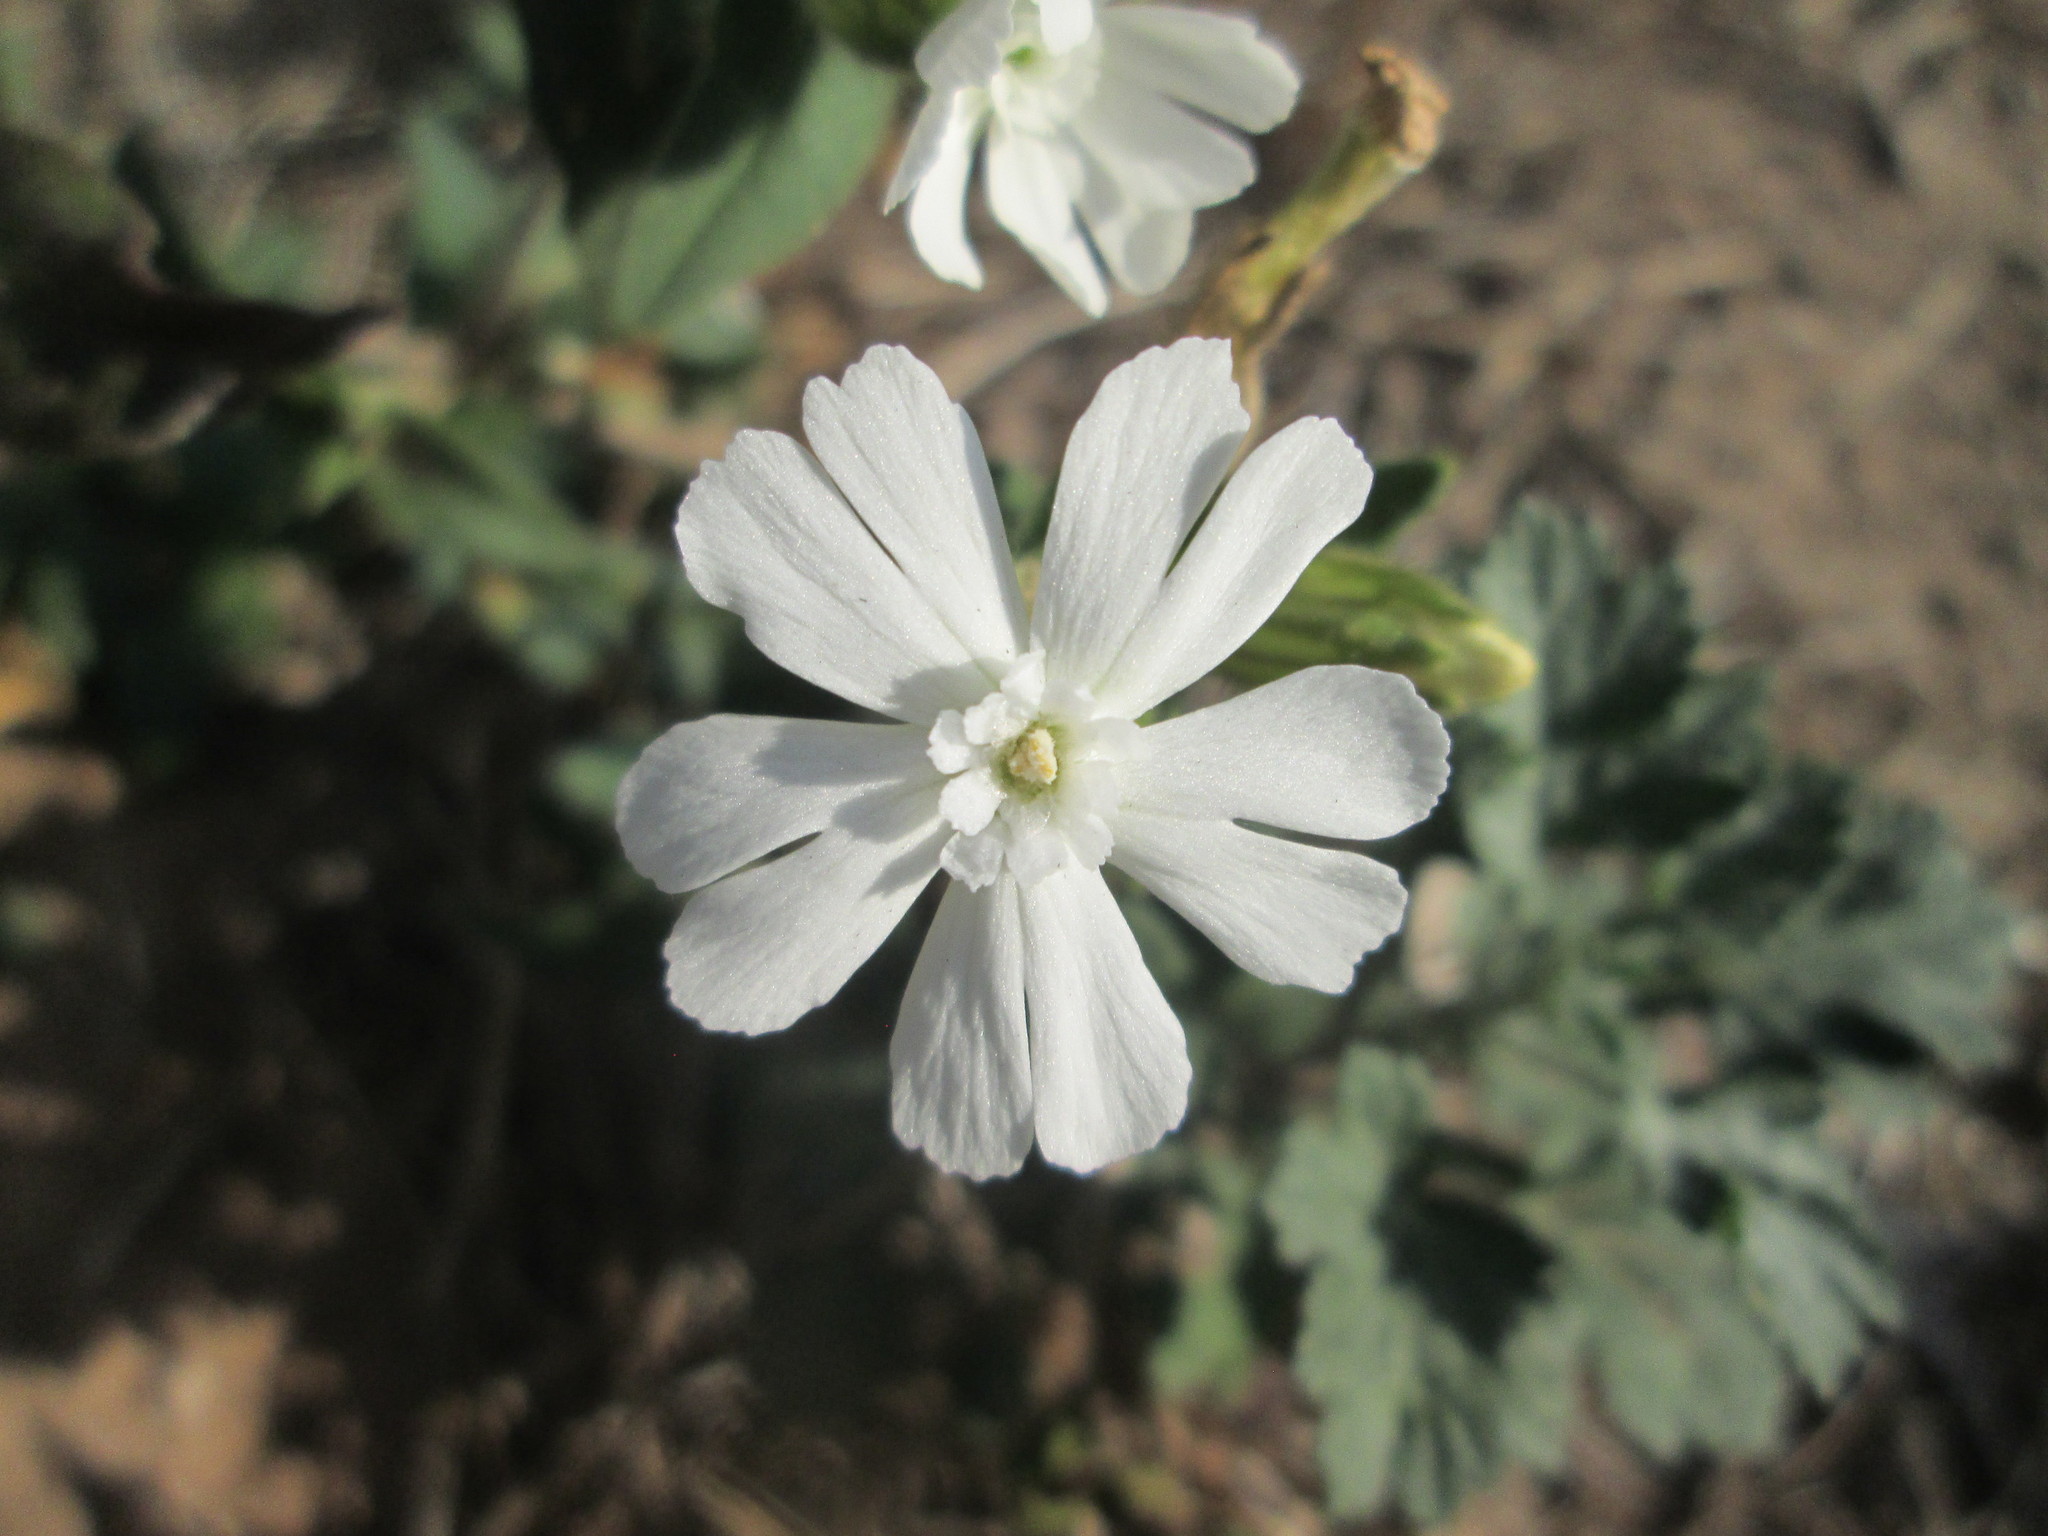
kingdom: Plantae
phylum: Tracheophyta
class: Magnoliopsida
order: Caryophyllales
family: Caryophyllaceae
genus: Silene
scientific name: Silene latifolia
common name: White campion
